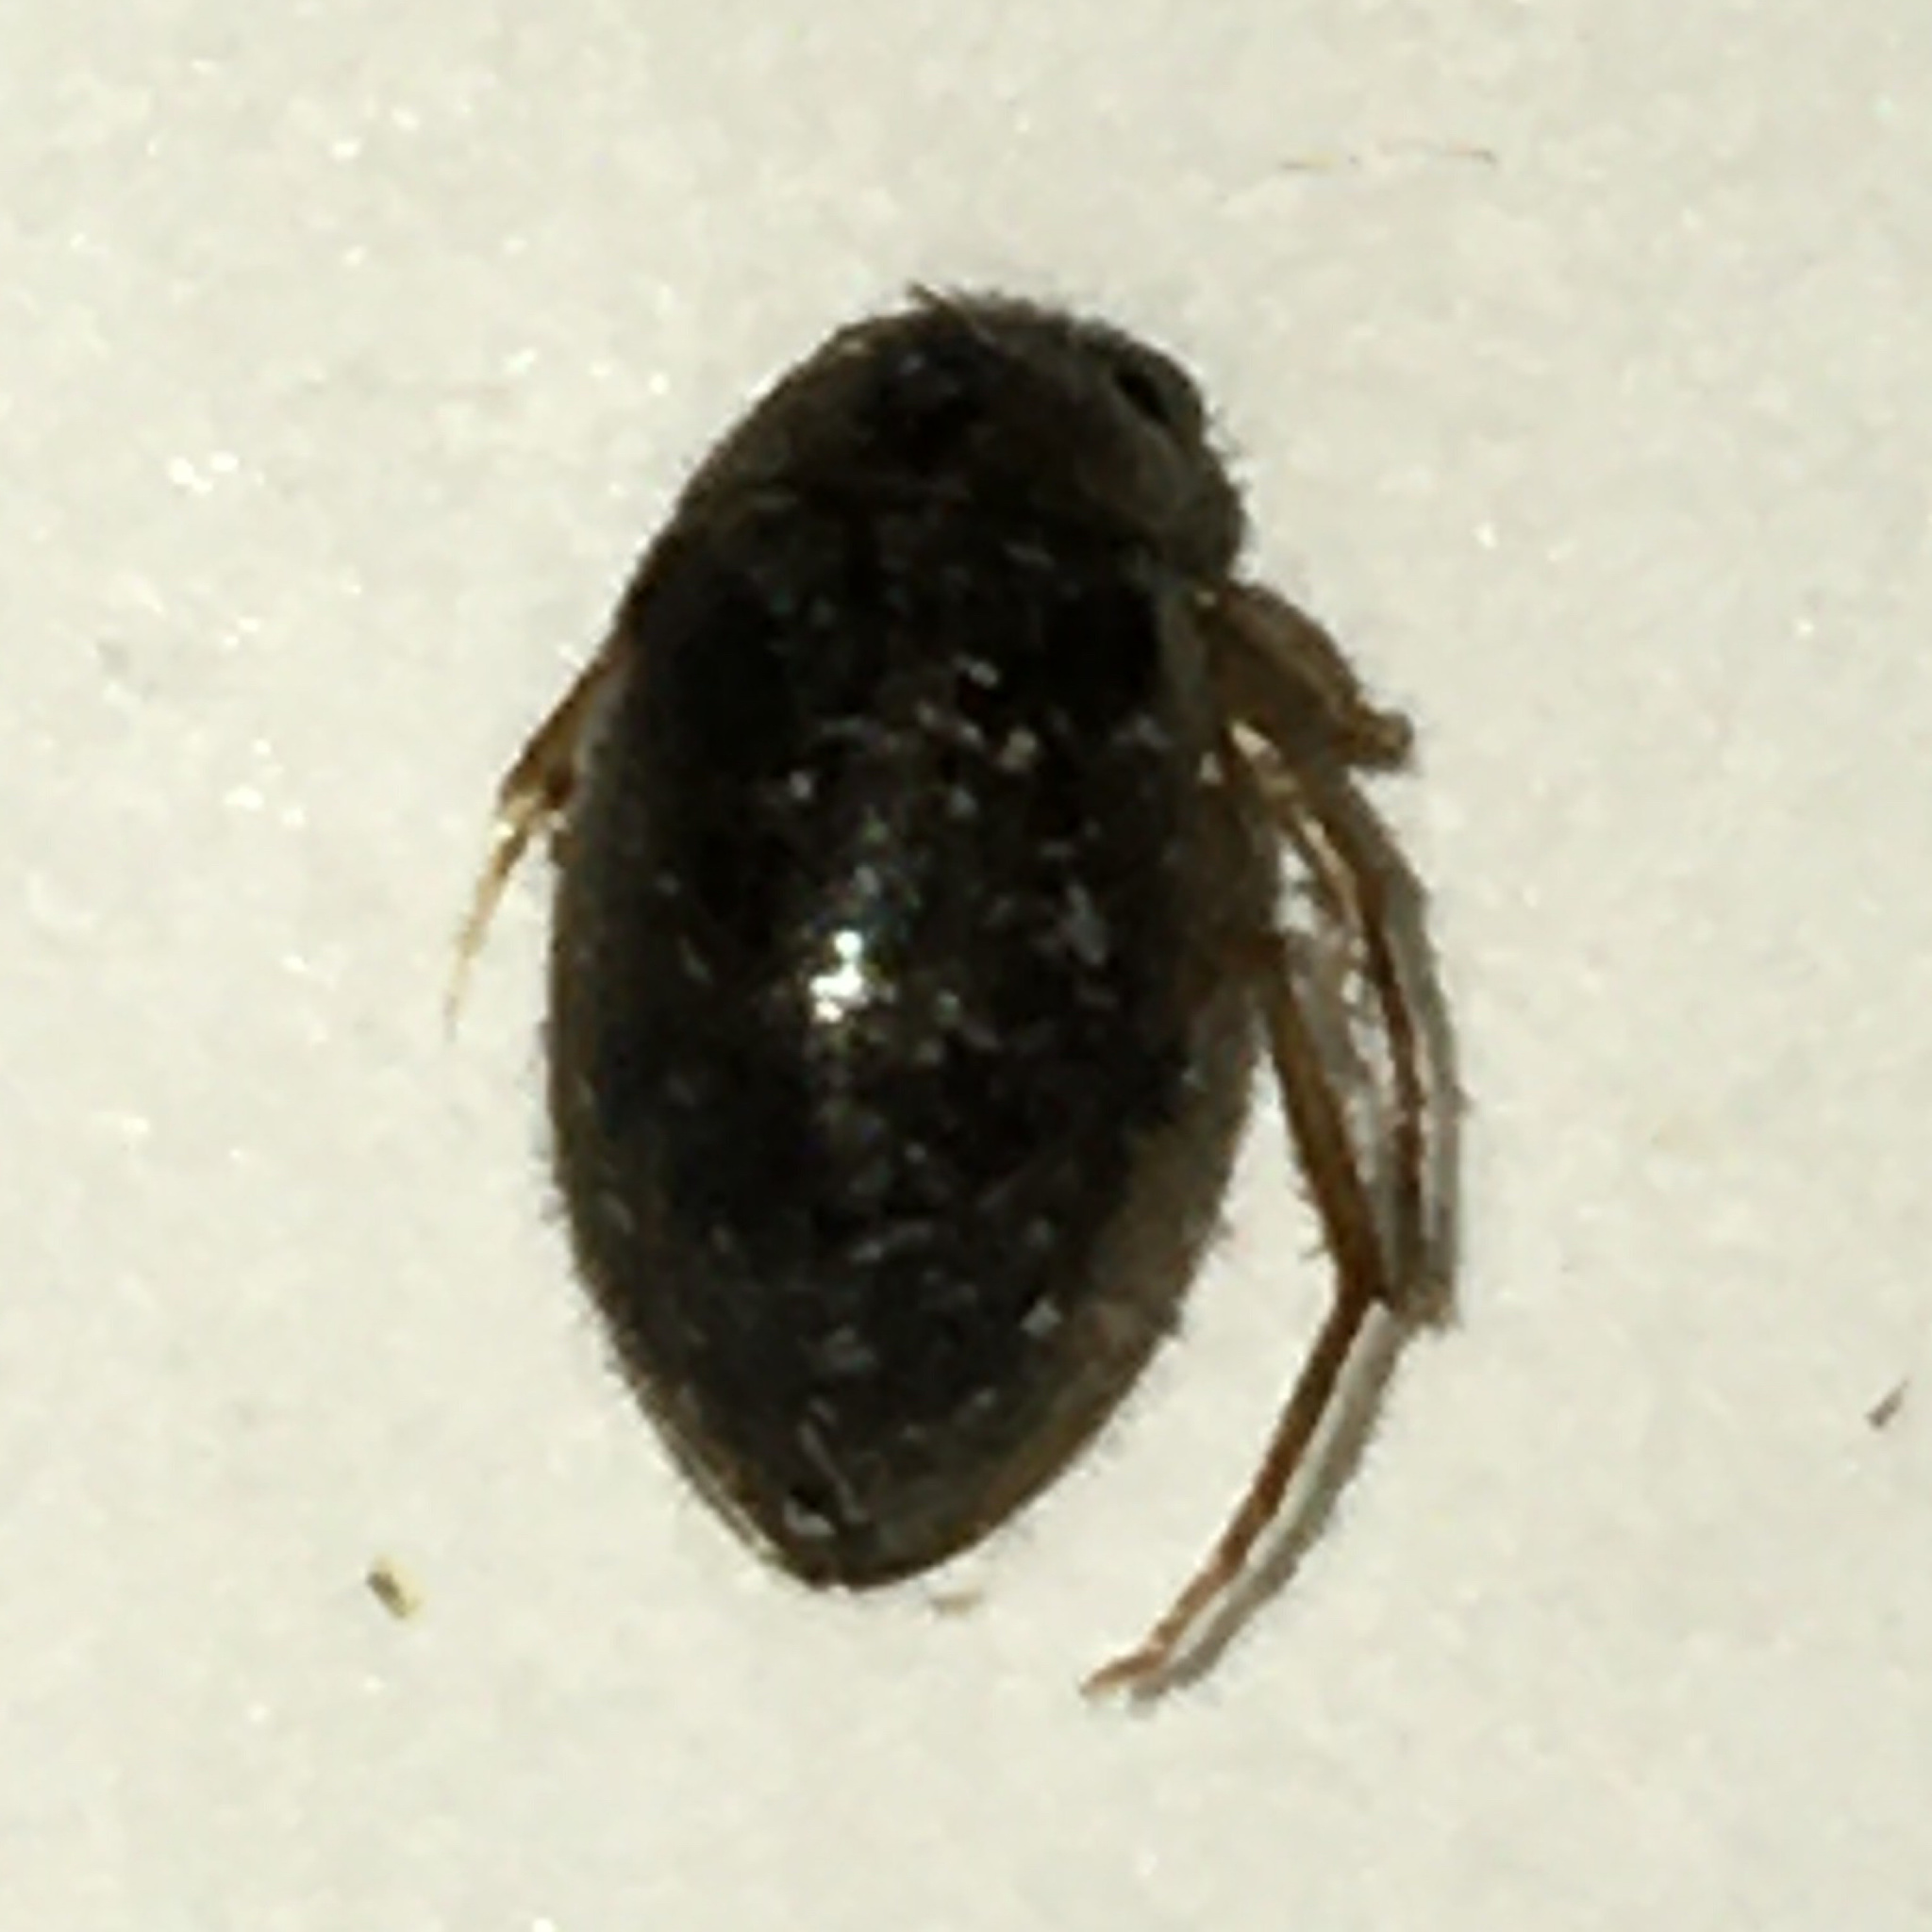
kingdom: Animalia
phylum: Arthropoda
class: Insecta
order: Coleoptera
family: Hydrophilidae
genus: Berosus
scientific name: Berosus
